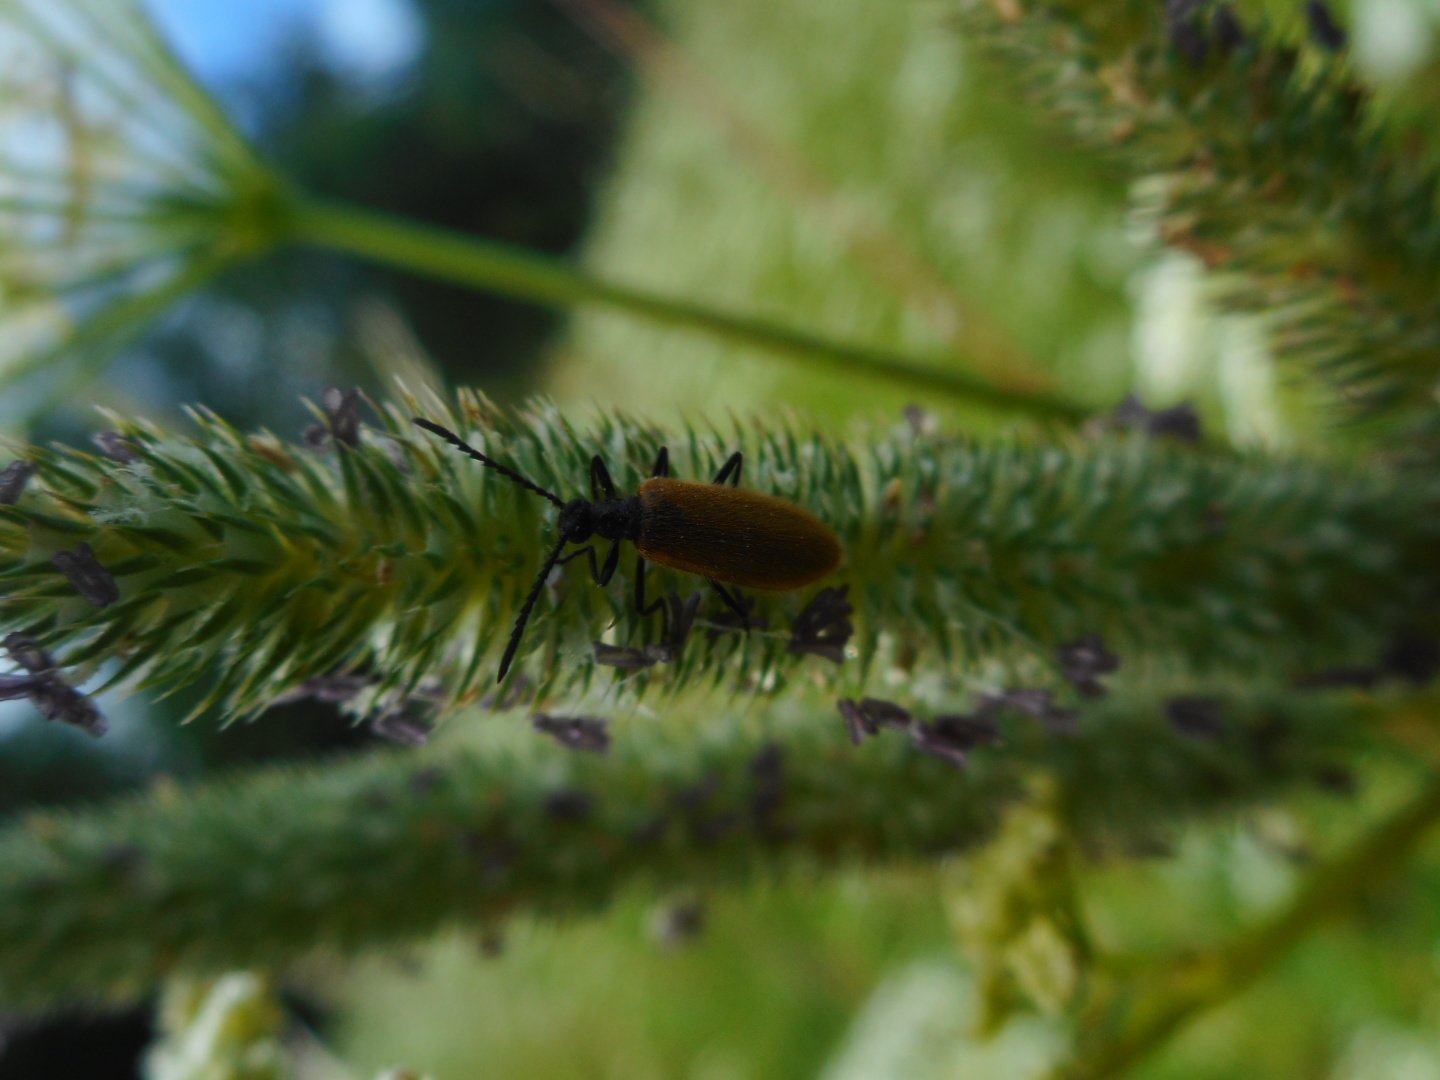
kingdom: Animalia
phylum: Arthropoda
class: Insecta
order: Coleoptera
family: Tenebrionidae
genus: Lagria
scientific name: Lagria hirta
